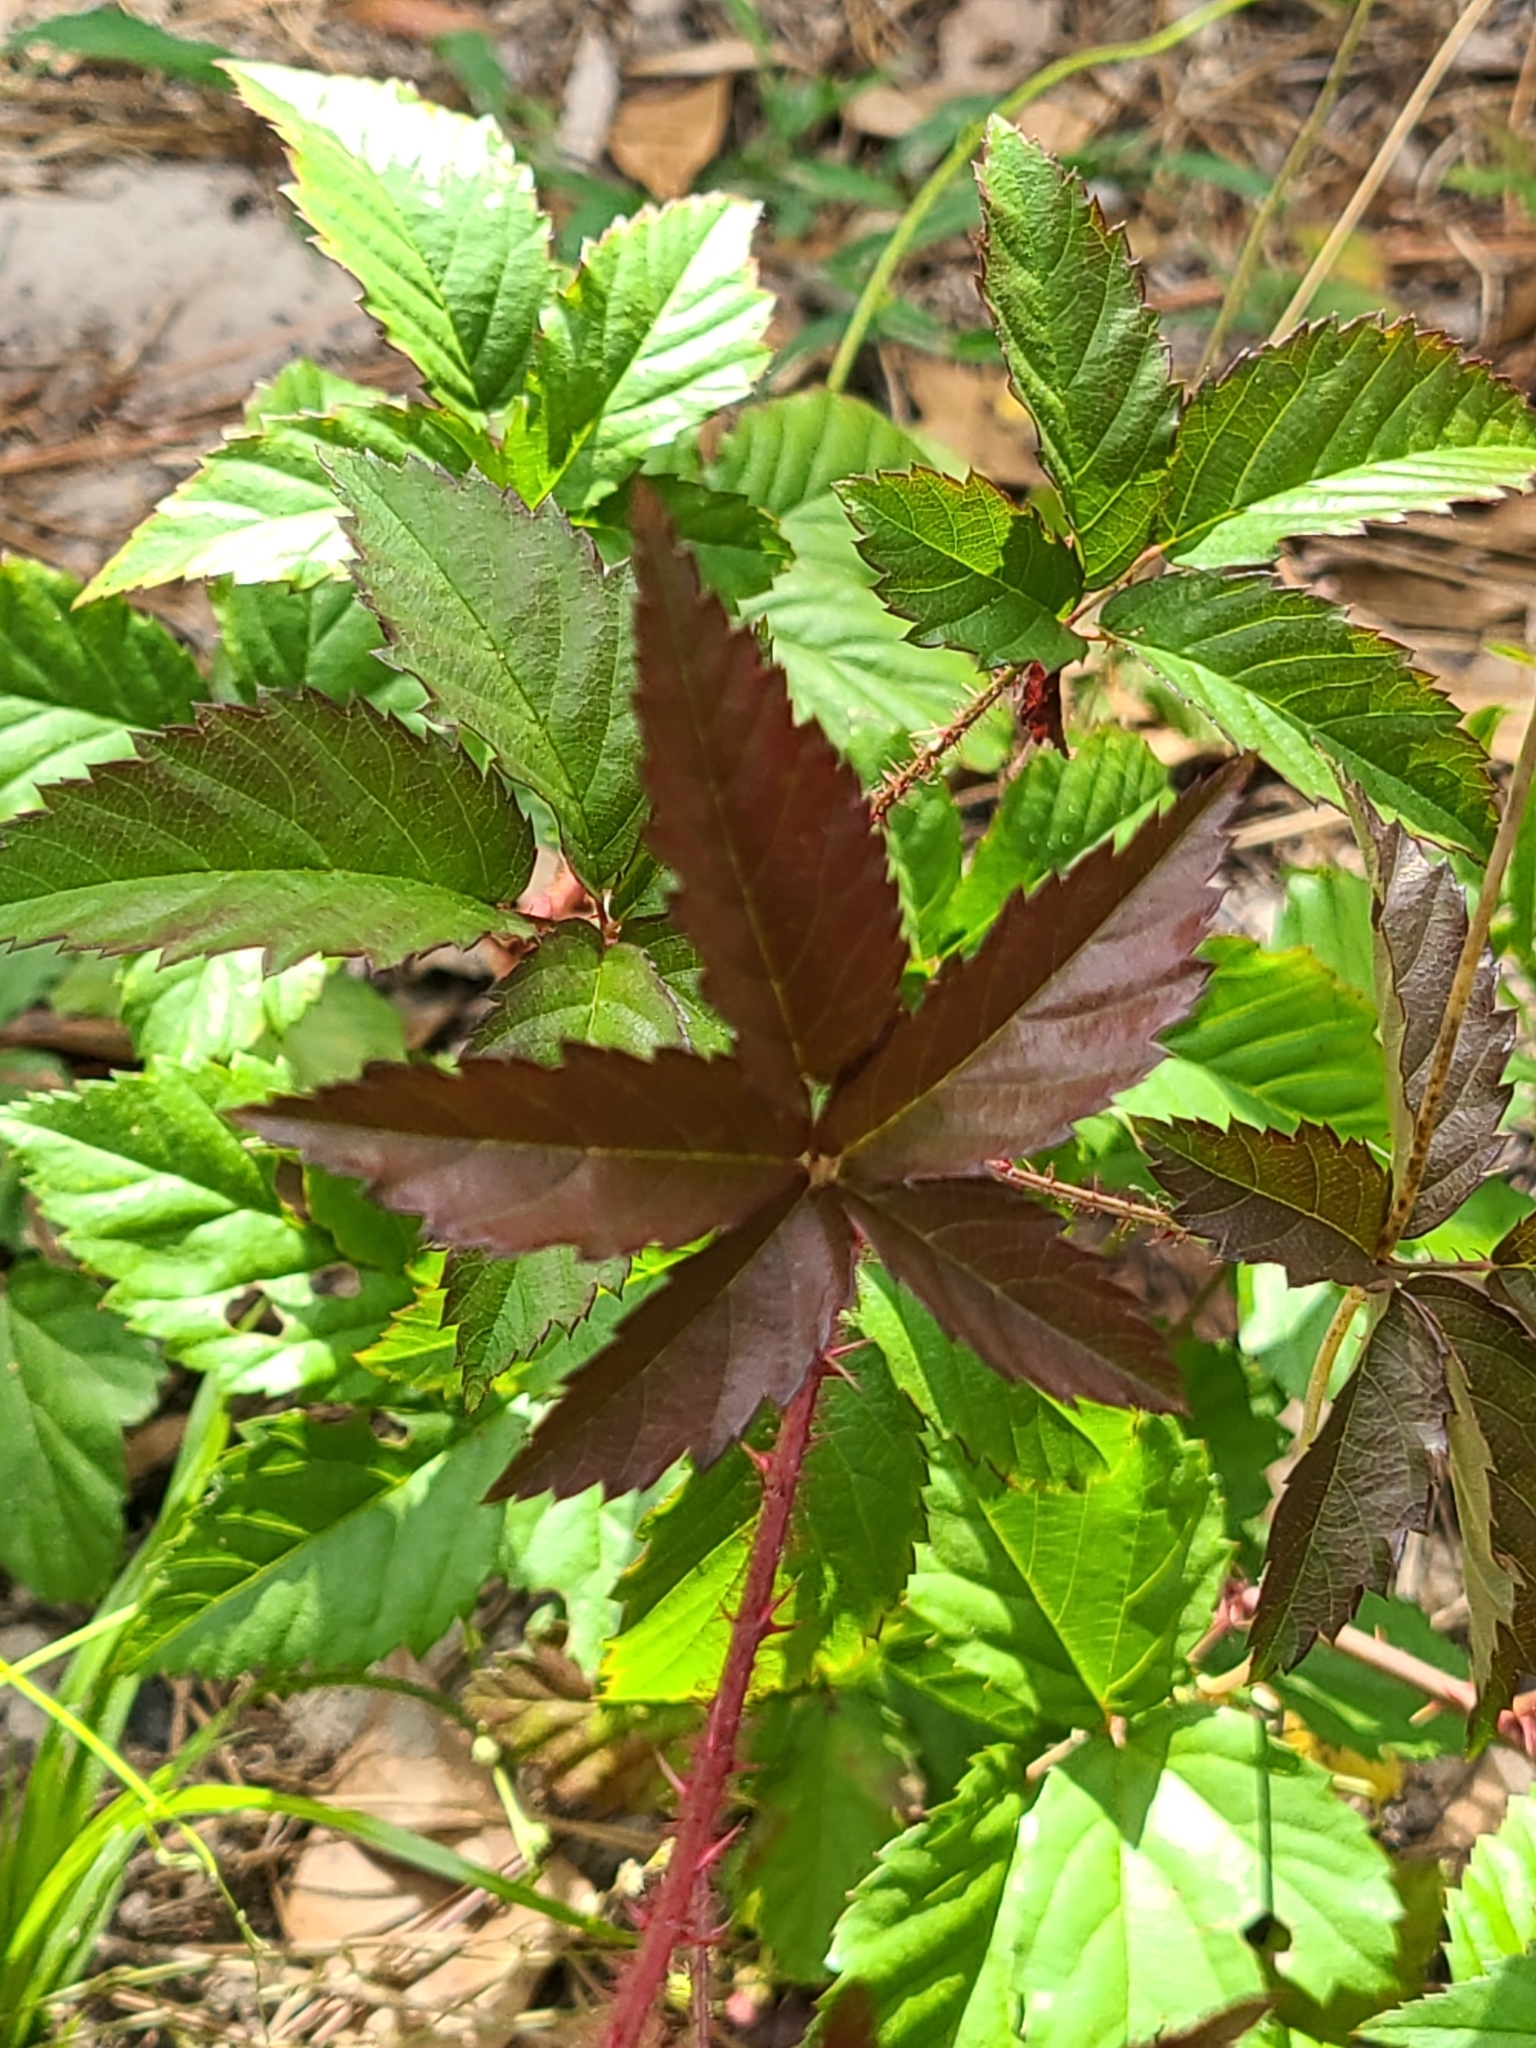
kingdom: Plantae
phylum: Tracheophyta
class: Magnoliopsida
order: Rosales
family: Rosaceae
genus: Rubus
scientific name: Rubus trivialis
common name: Southern dewberry
